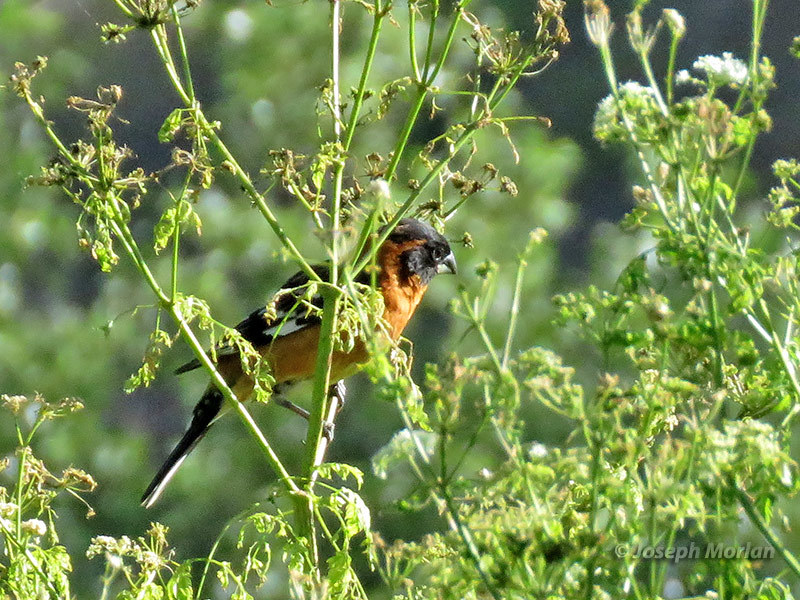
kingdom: Animalia
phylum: Chordata
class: Aves
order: Passeriformes
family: Cardinalidae
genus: Pheucticus
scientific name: Pheucticus melanocephalus
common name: Black-headed grosbeak
